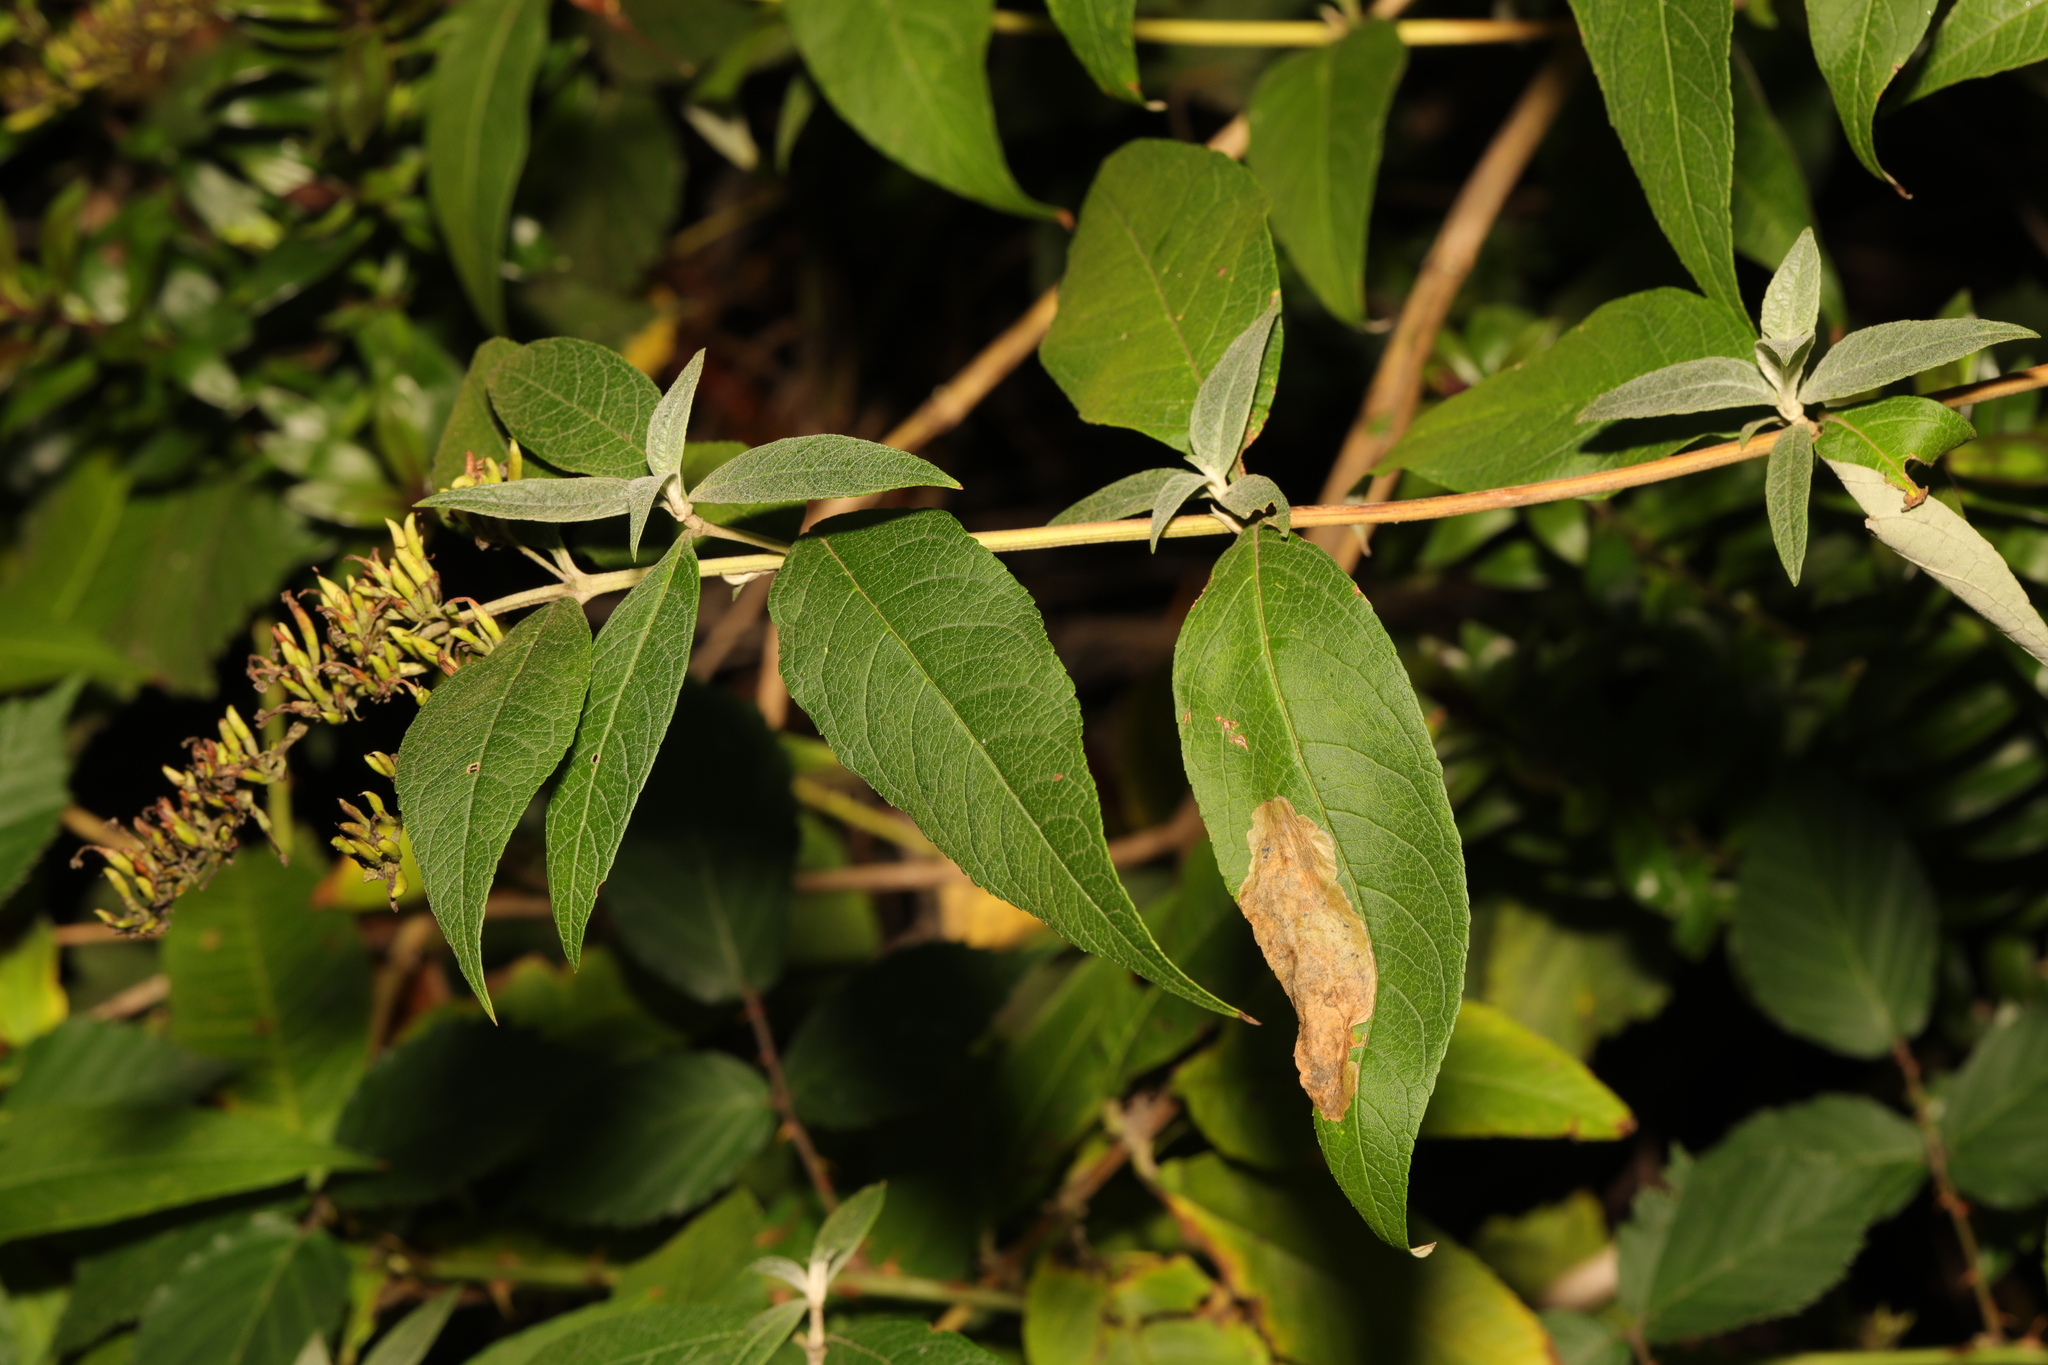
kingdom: Plantae
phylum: Tracheophyta
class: Magnoliopsida
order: Lamiales
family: Scrophulariaceae
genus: Buddleja
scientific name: Buddleja davidii
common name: Butterfly-bush
